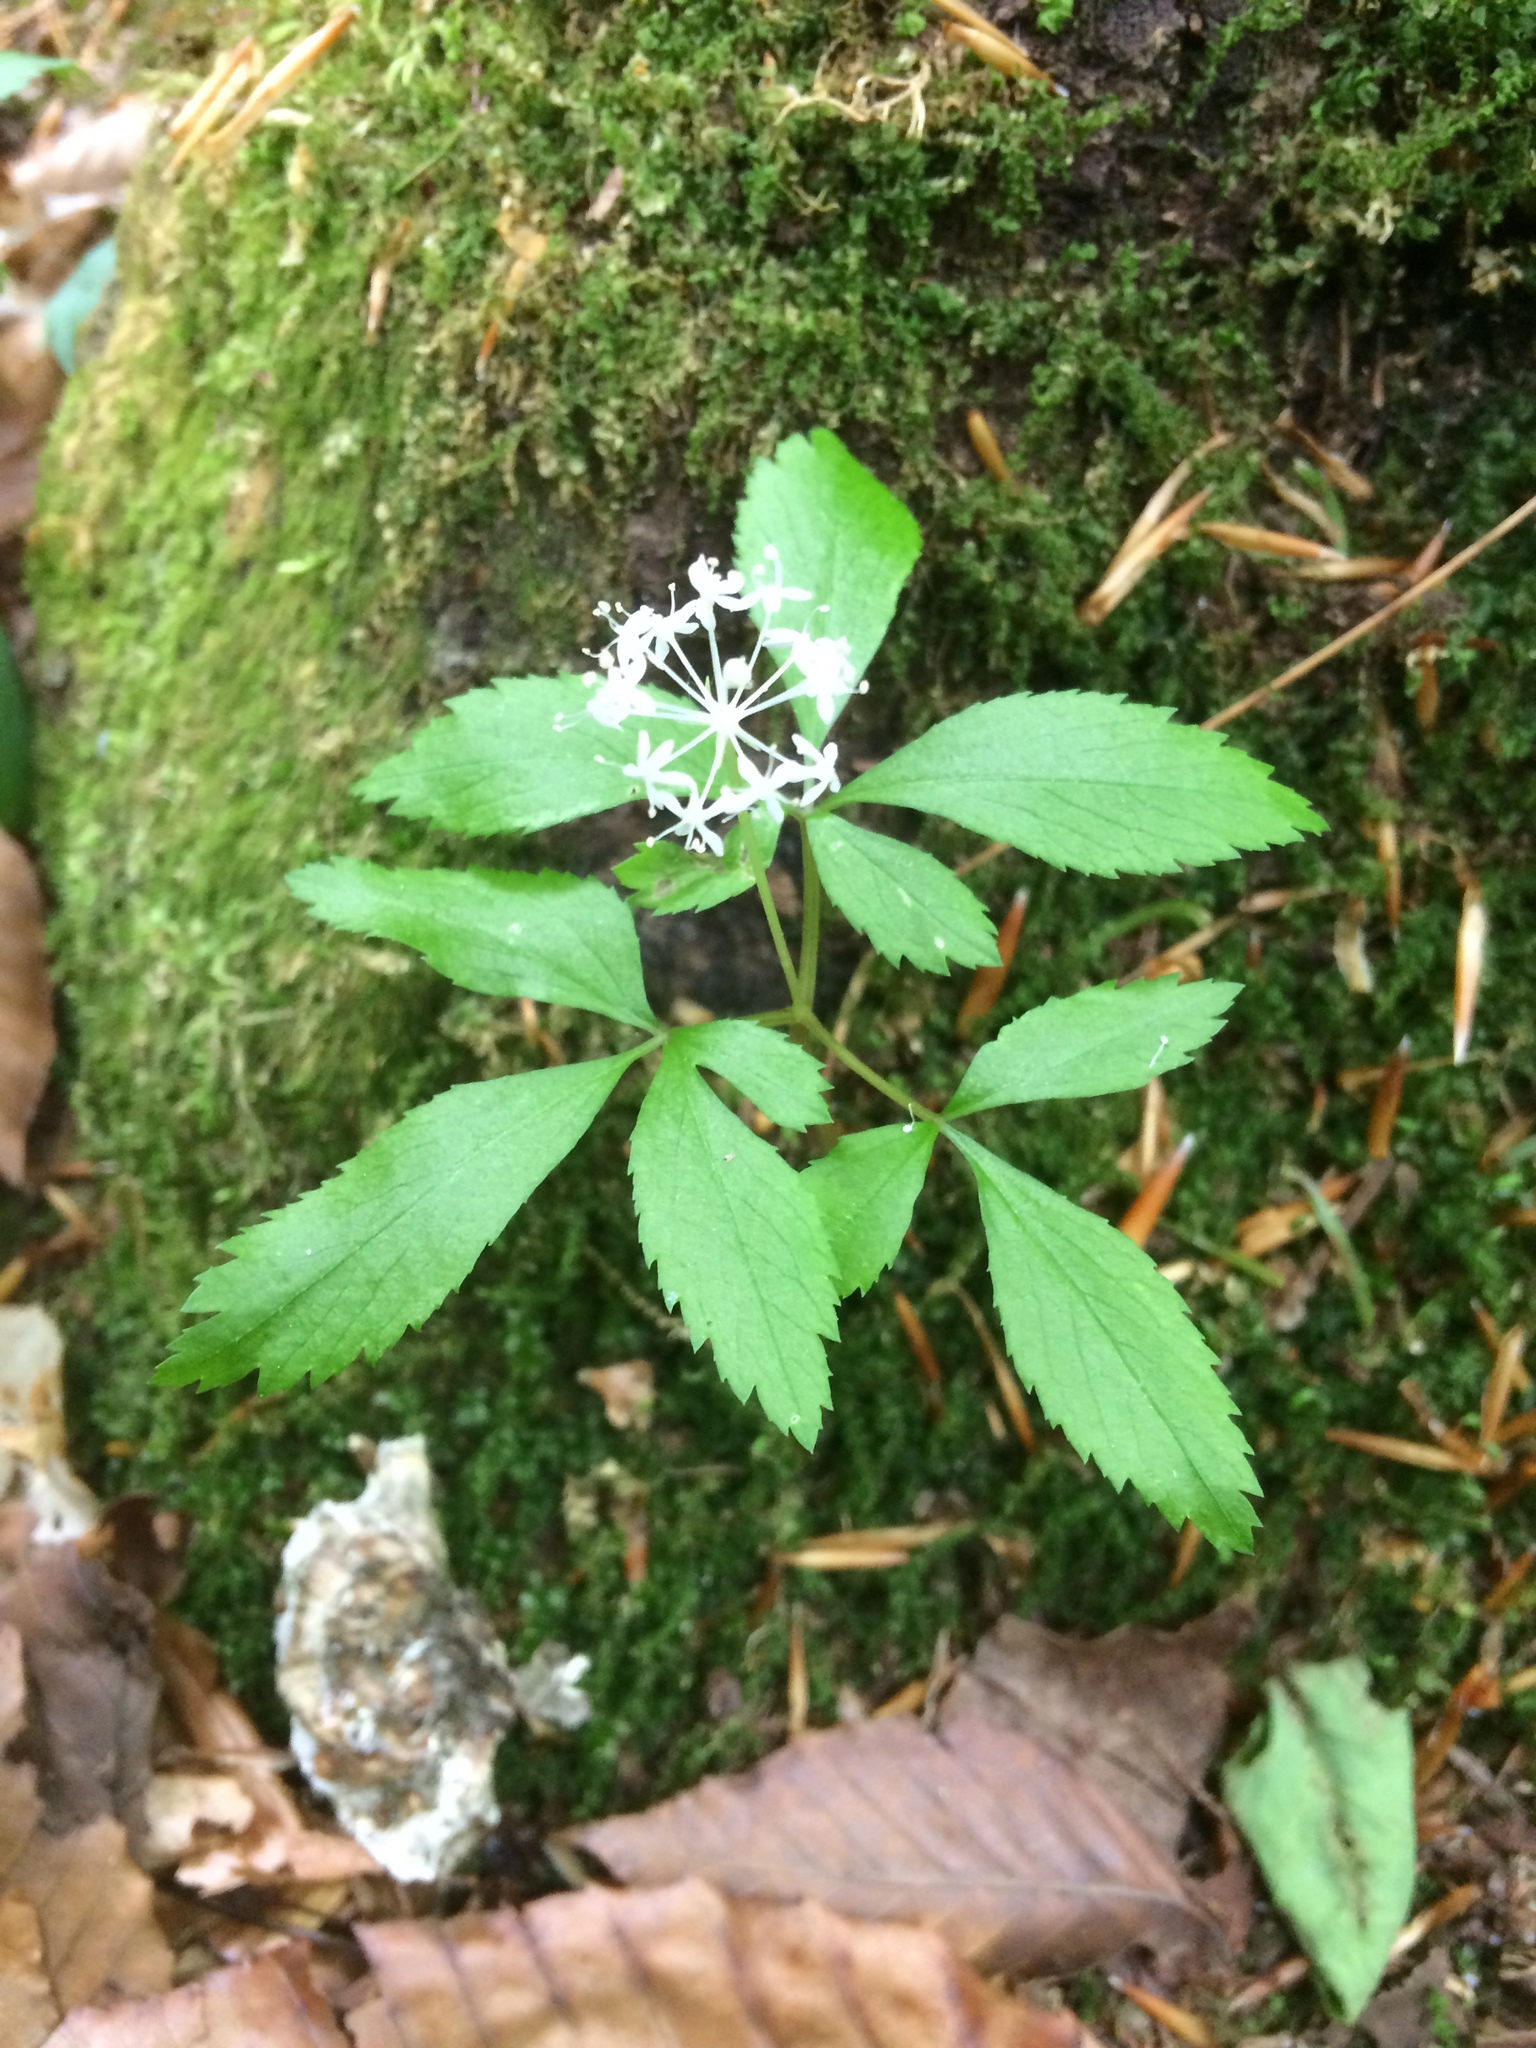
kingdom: Plantae
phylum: Tracheophyta
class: Magnoliopsida
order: Apiales
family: Araliaceae
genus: Panax
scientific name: Panax trifolius
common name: Dwarf ginseng
